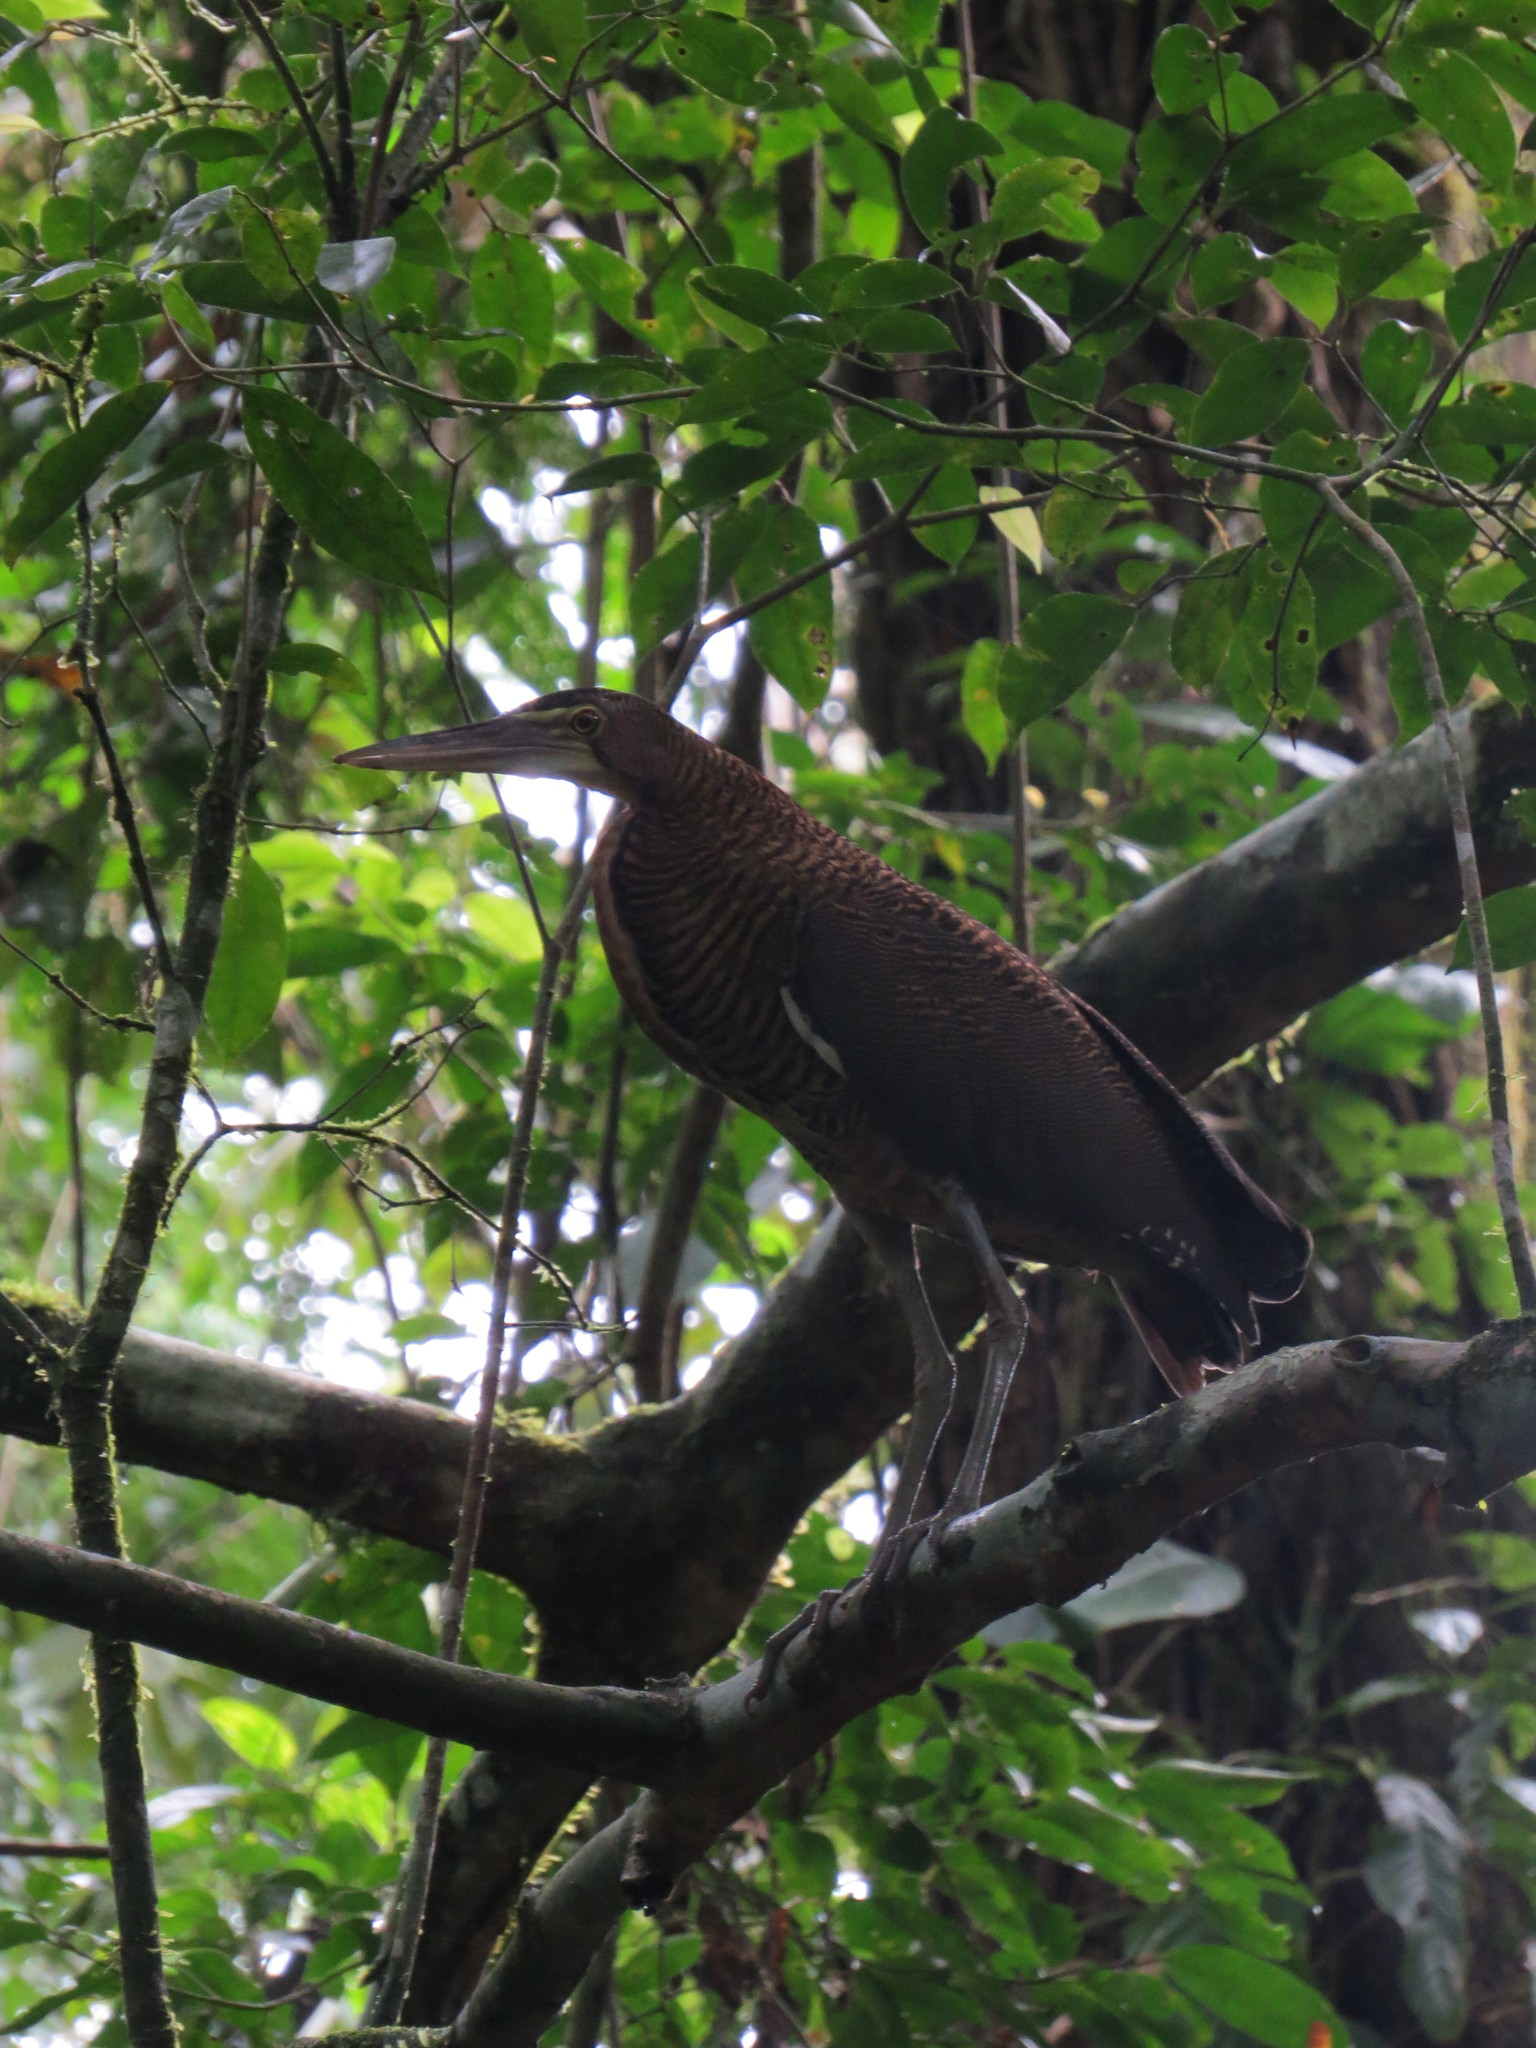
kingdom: Animalia
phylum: Chordata
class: Aves
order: Pelecaniformes
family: Ardeidae
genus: Tigrisoma
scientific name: Tigrisoma mexicanum
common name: Bare-throated tiger-heron
